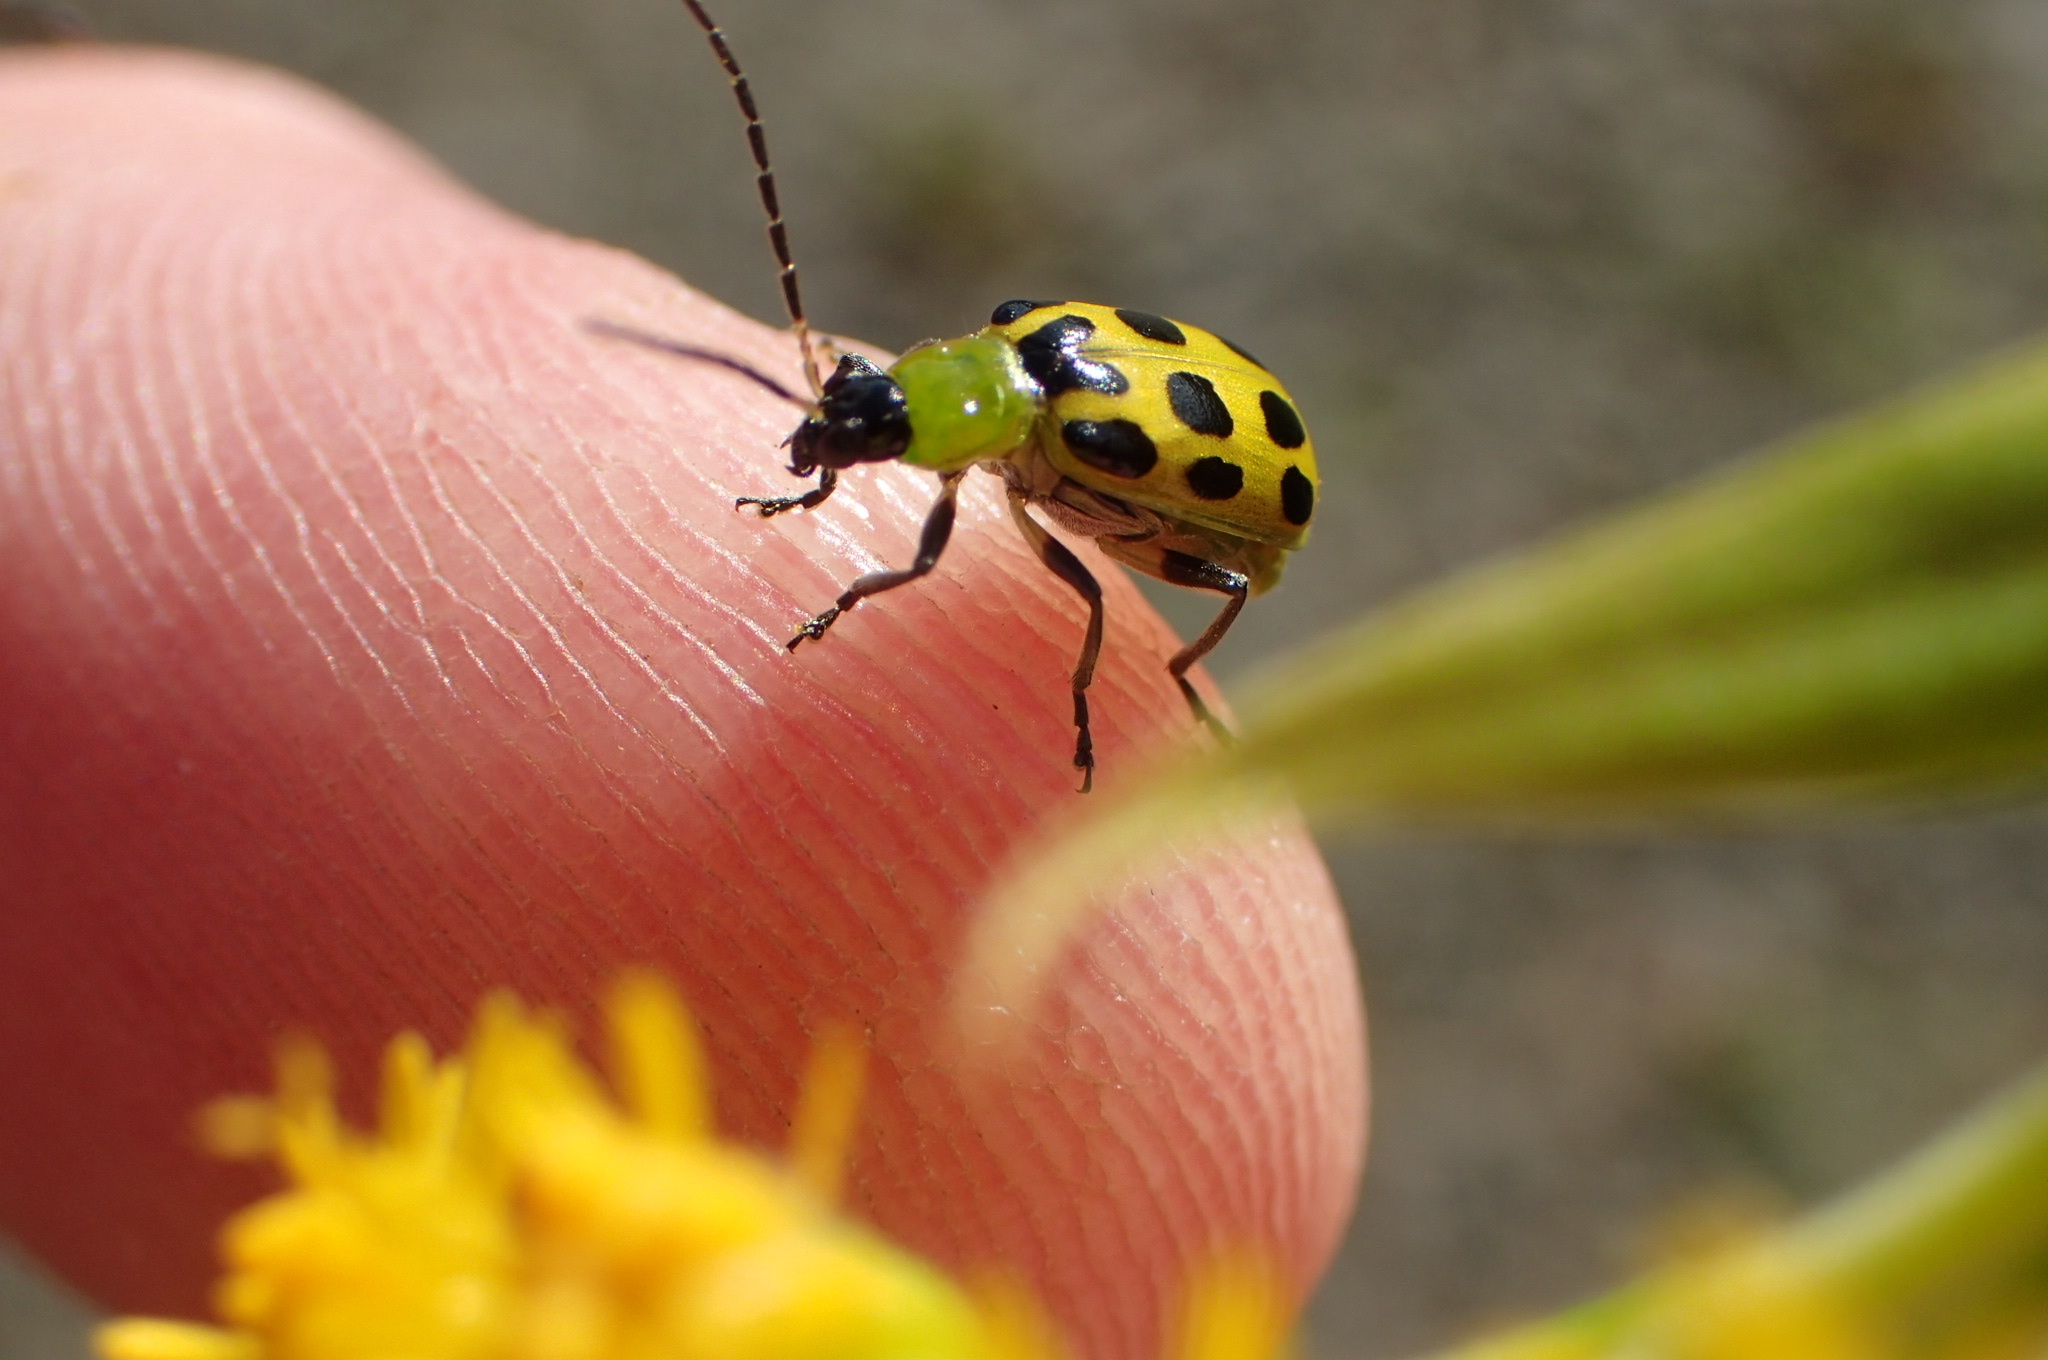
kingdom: Animalia
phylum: Arthropoda
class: Insecta
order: Coleoptera
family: Chrysomelidae
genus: Diabrotica
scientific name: Diabrotica undecimpunctata
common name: Spotted cucumber beetle
